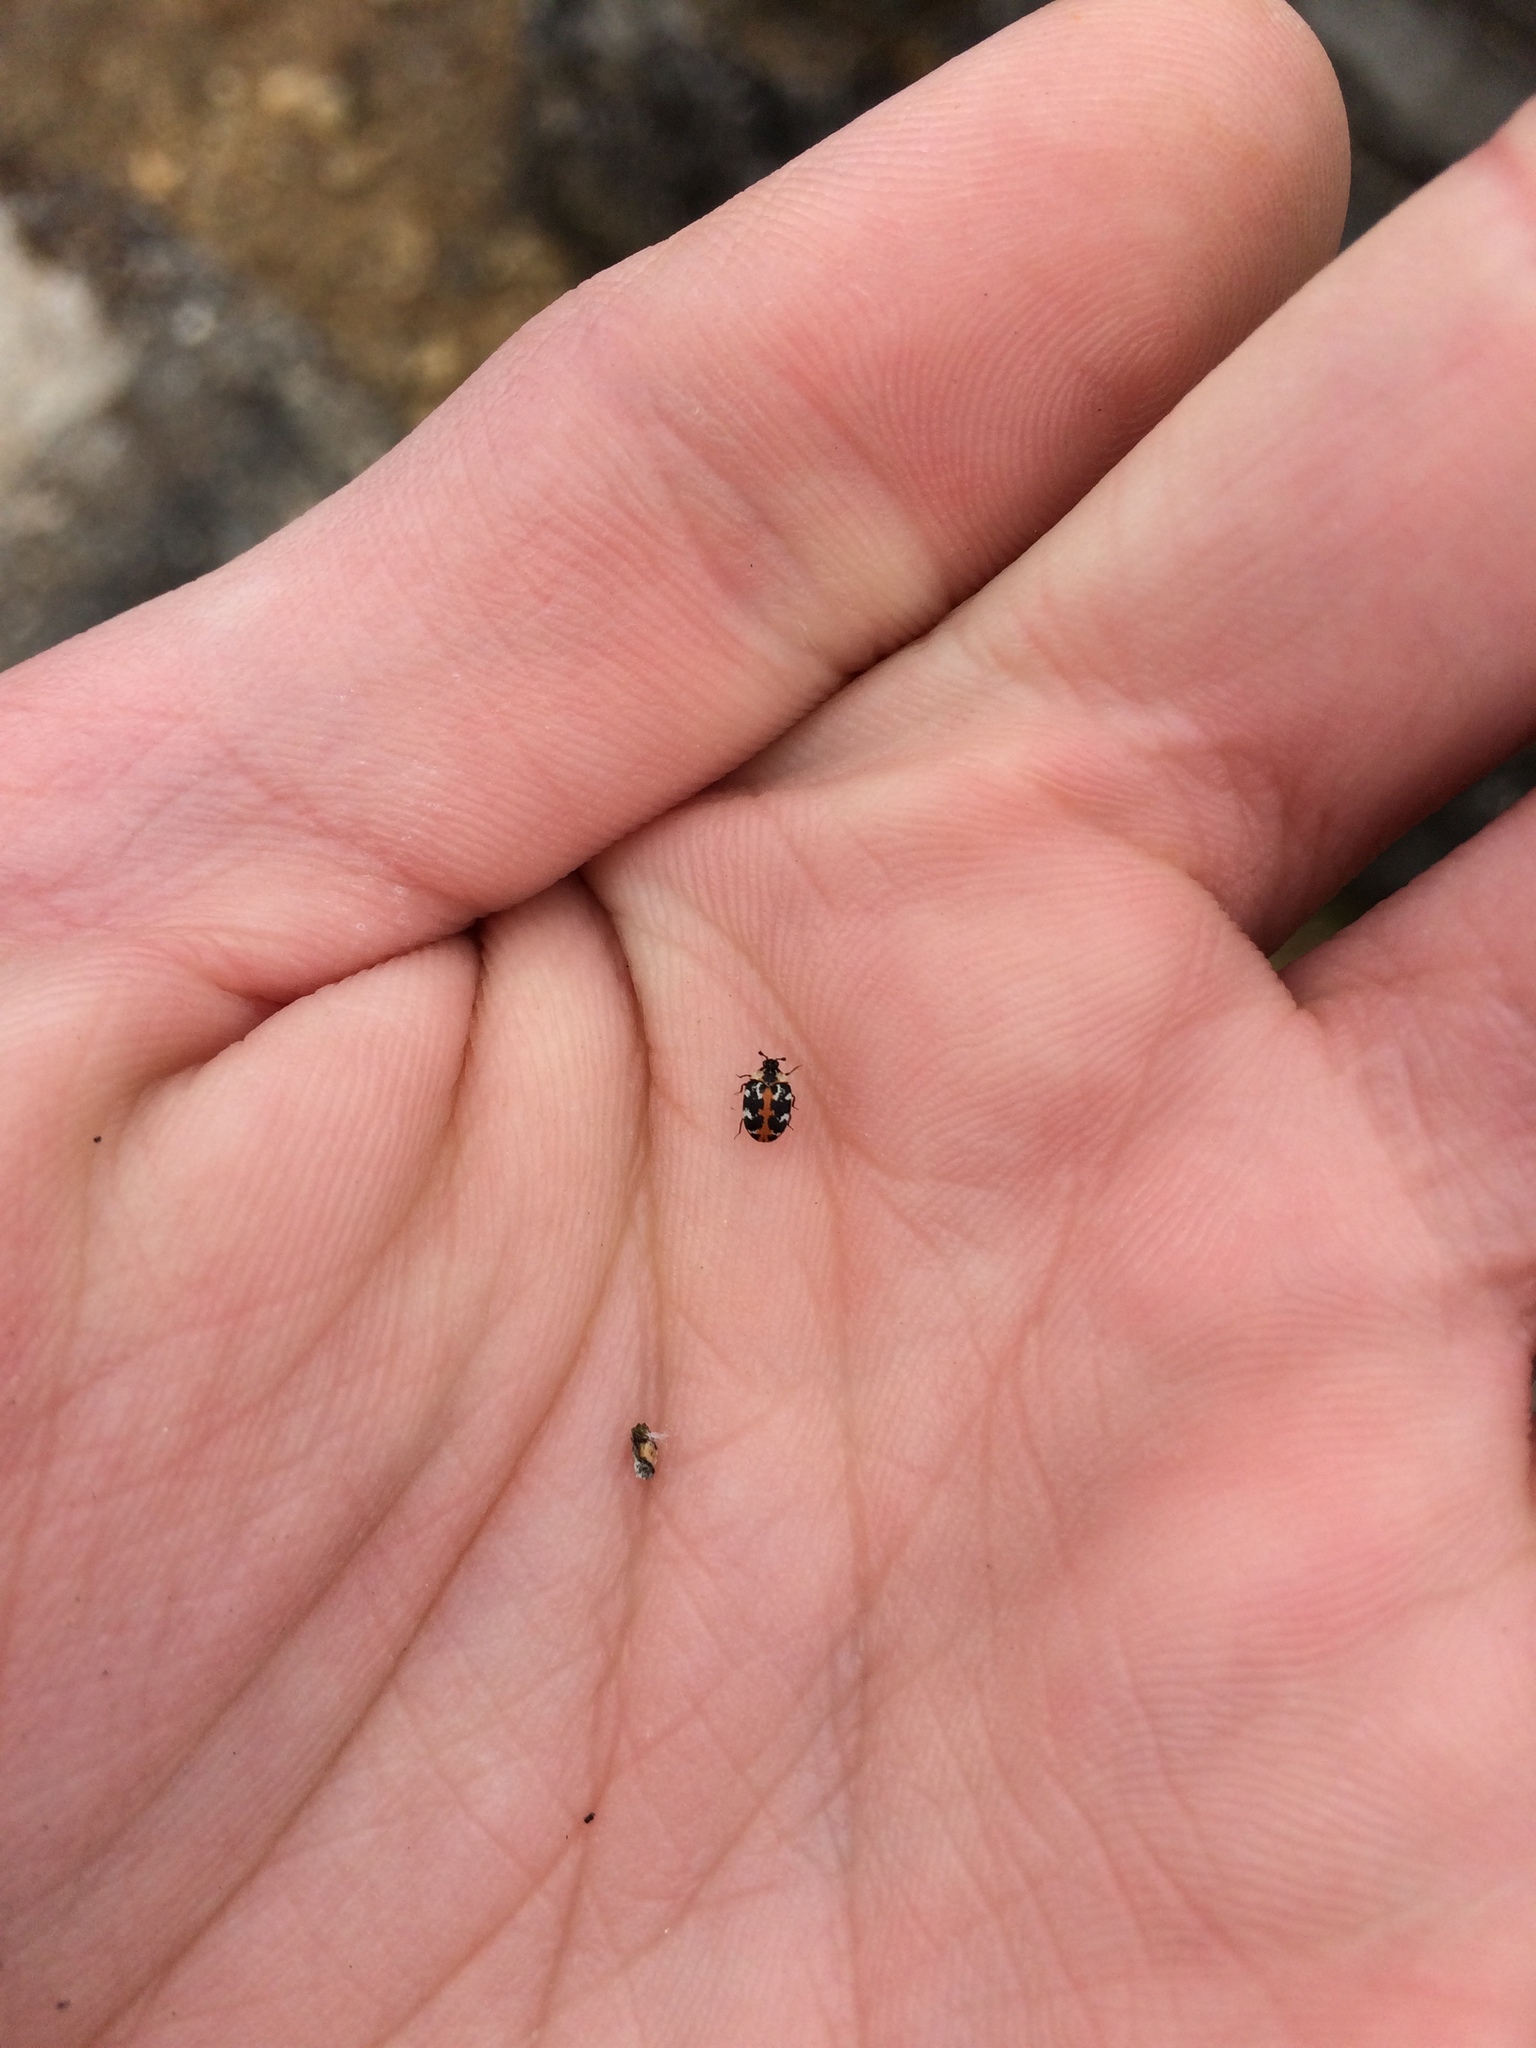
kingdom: Animalia
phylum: Arthropoda
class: Insecta
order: Coleoptera
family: Dermestidae
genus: Anthrenus
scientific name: Anthrenus scrophulariae
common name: Buffalo carpet beetle
